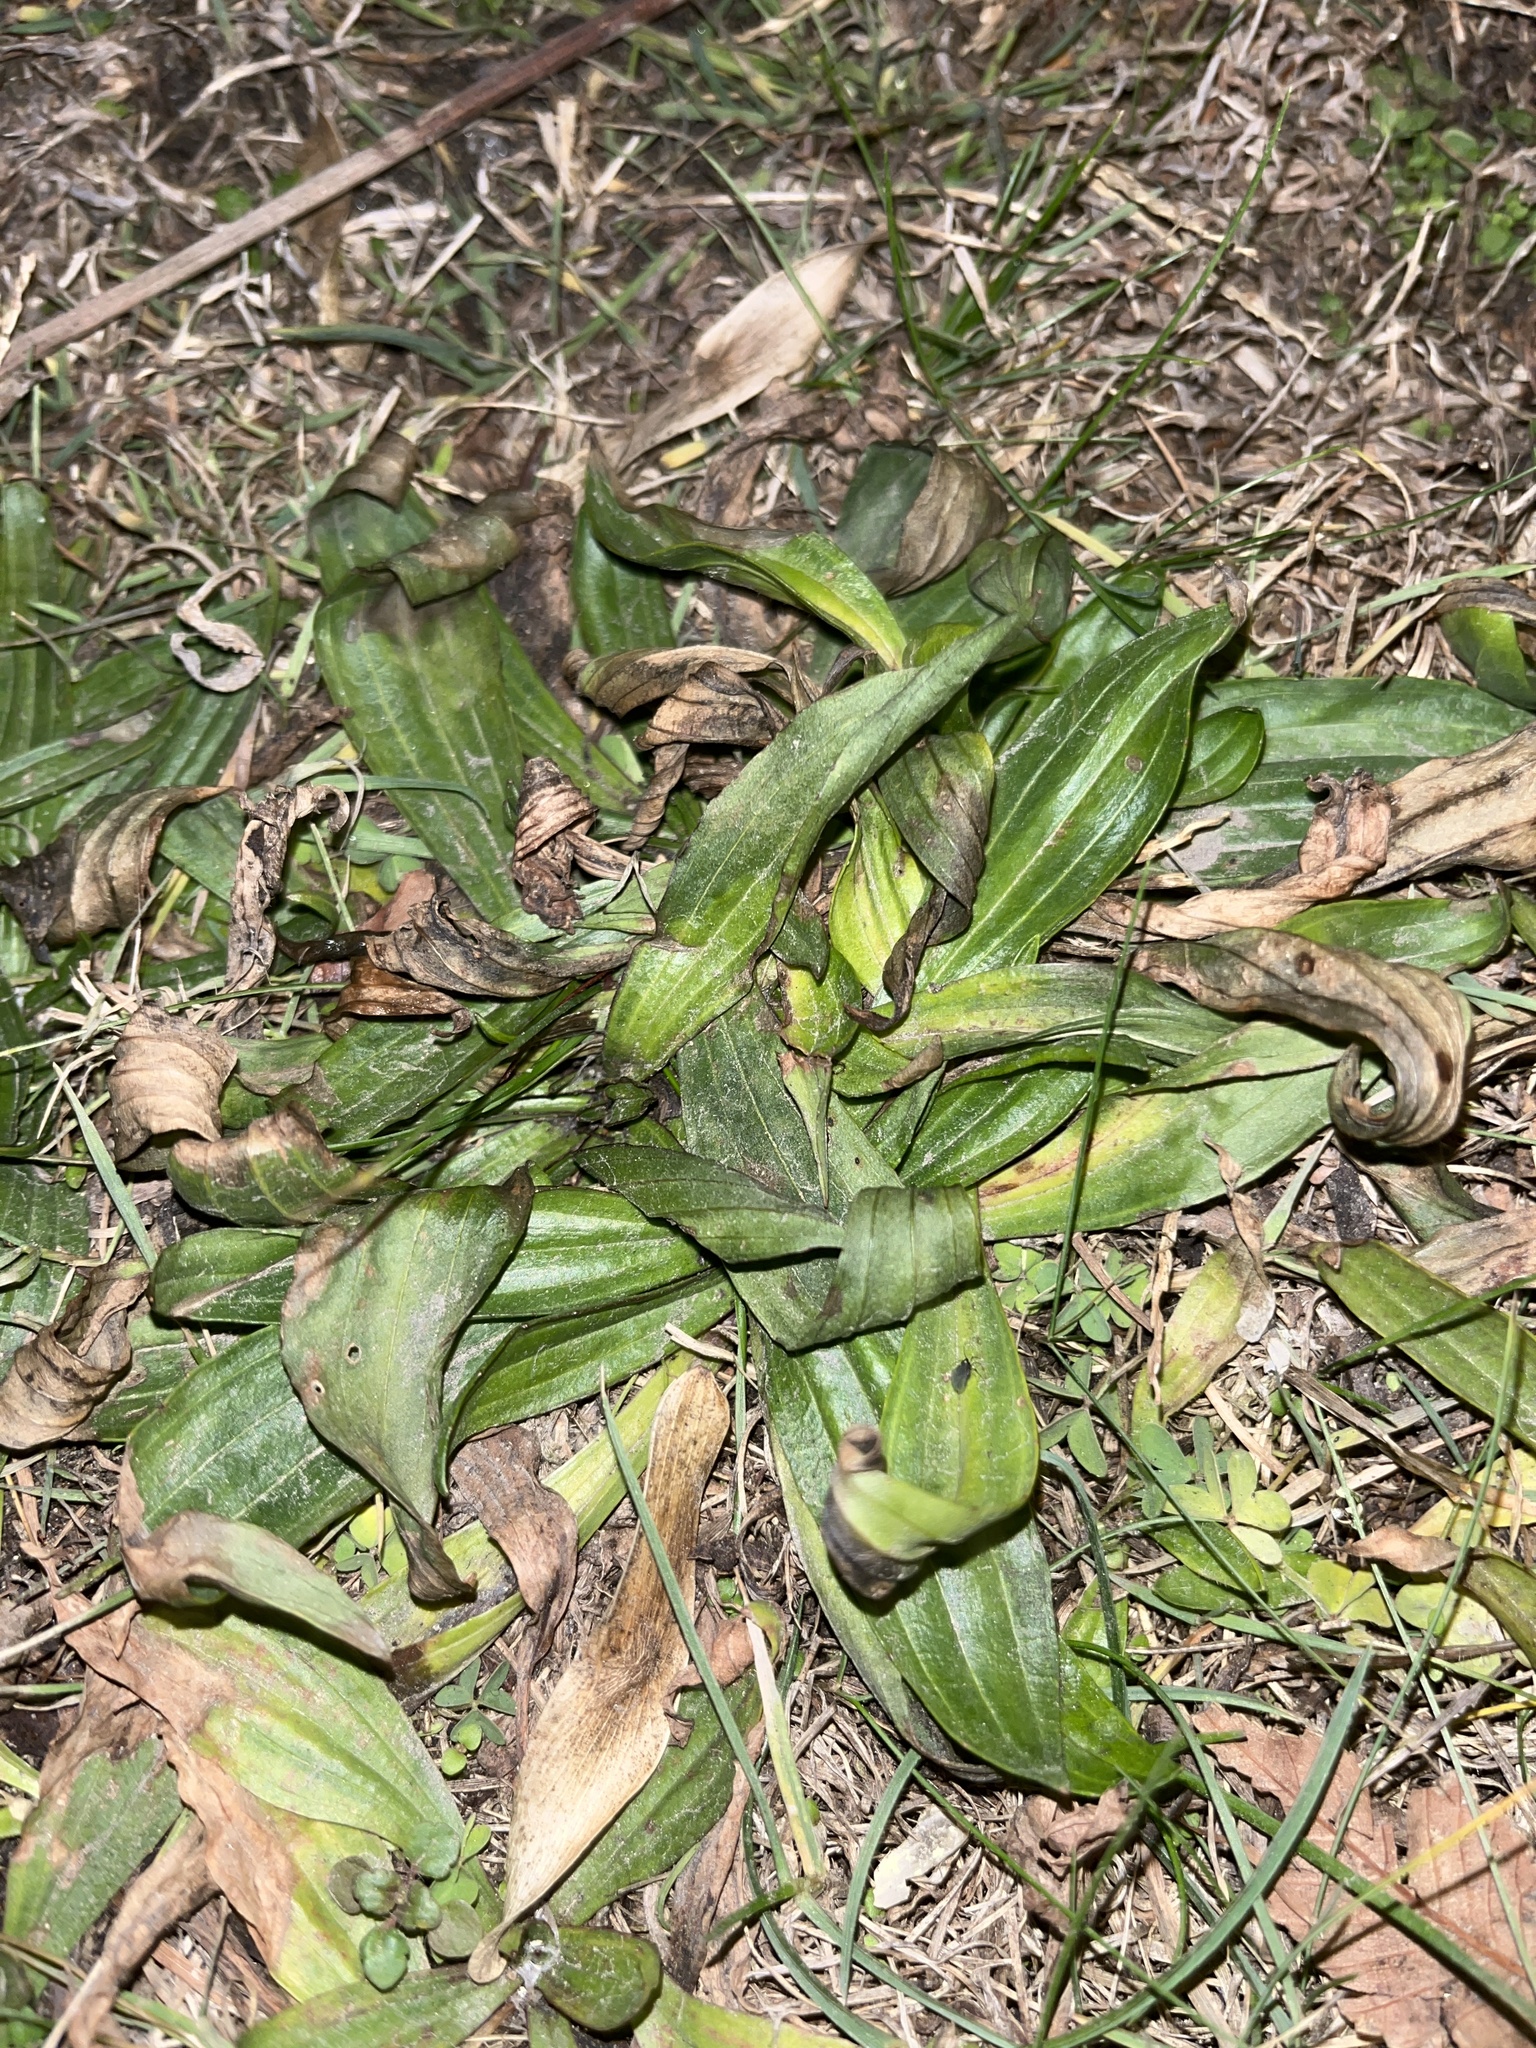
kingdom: Plantae
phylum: Tracheophyta
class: Magnoliopsida
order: Lamiales
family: Plantaginaceae
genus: Plantago
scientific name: Plantago lanceolata
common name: Ribwort plantain
